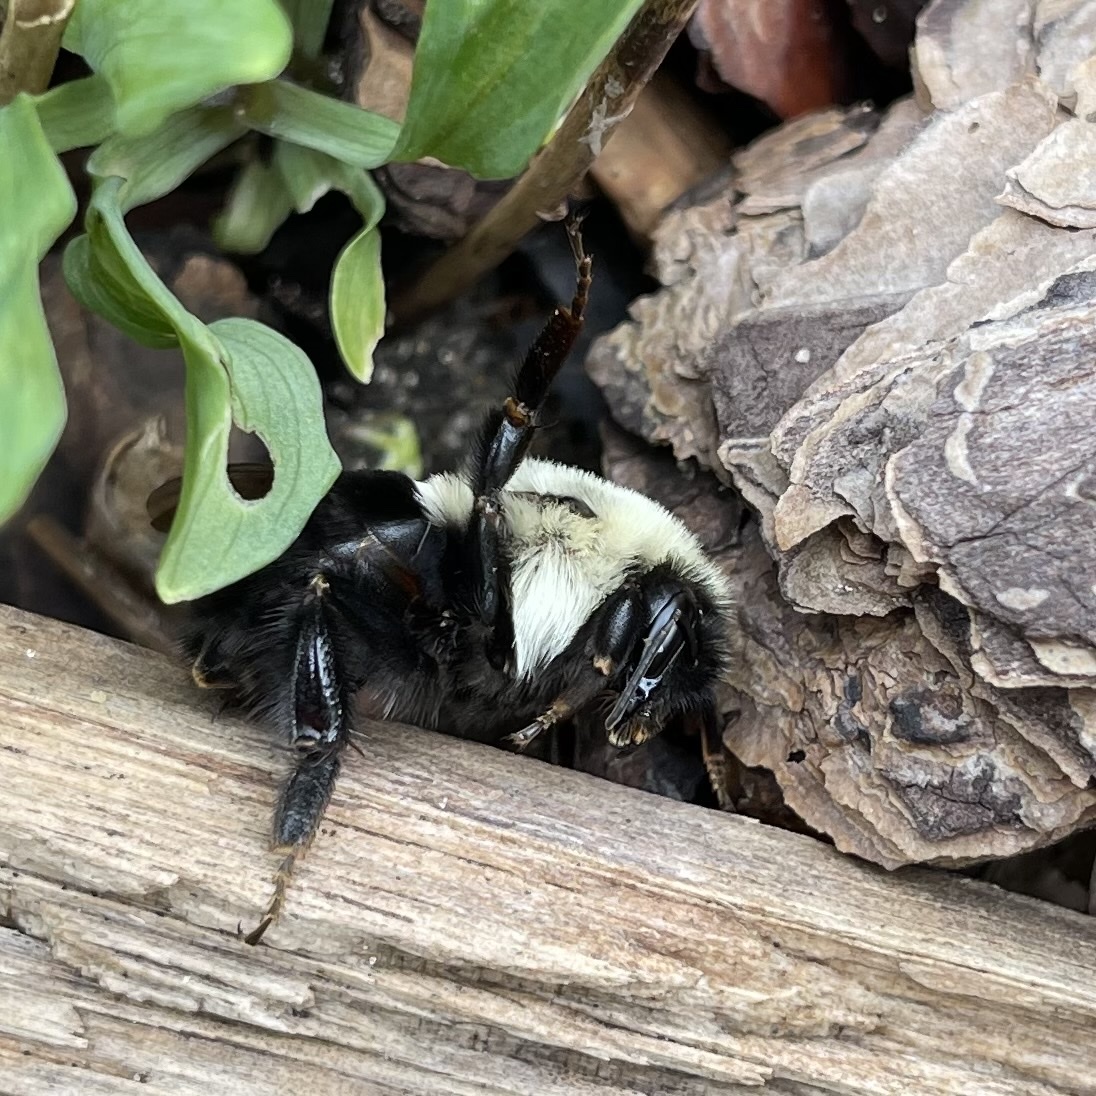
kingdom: Animalia
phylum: Arthropoda
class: Insecta
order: Hymenoptera
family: Apidae
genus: Bombus
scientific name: Bombus impatiens
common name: Common eastern bumble bee
